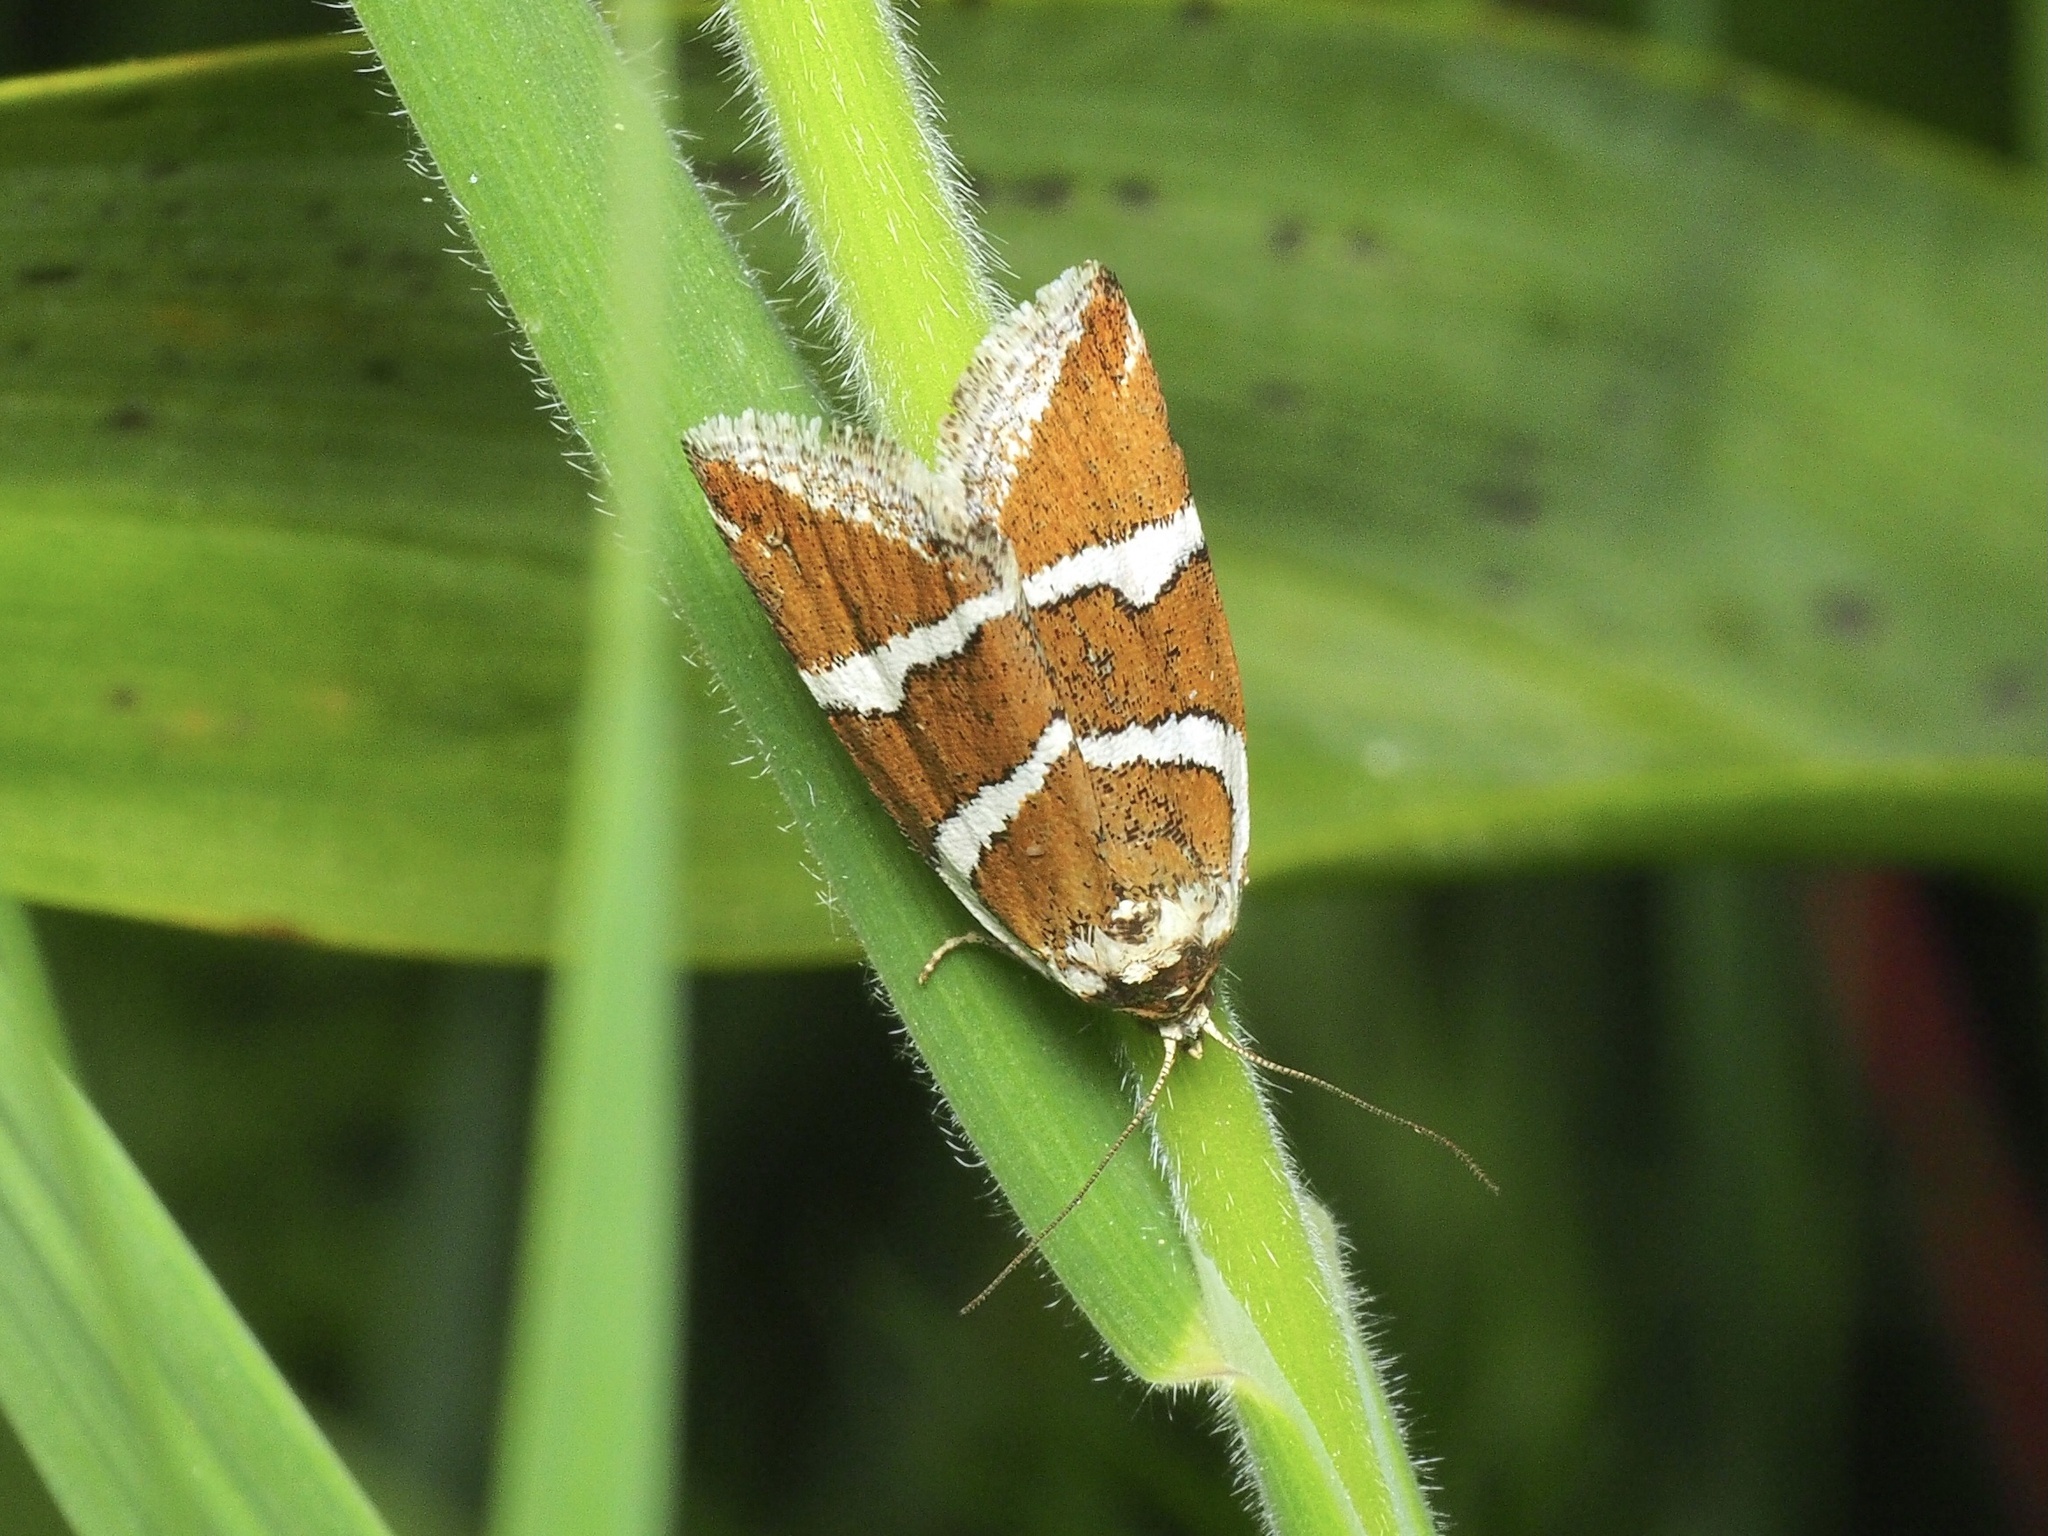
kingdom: Animalia
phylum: Arthropoda
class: Insecta
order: Lepidoptera
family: Noctuidae
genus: Deltote
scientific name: Deltote bankiana
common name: Silver barred
